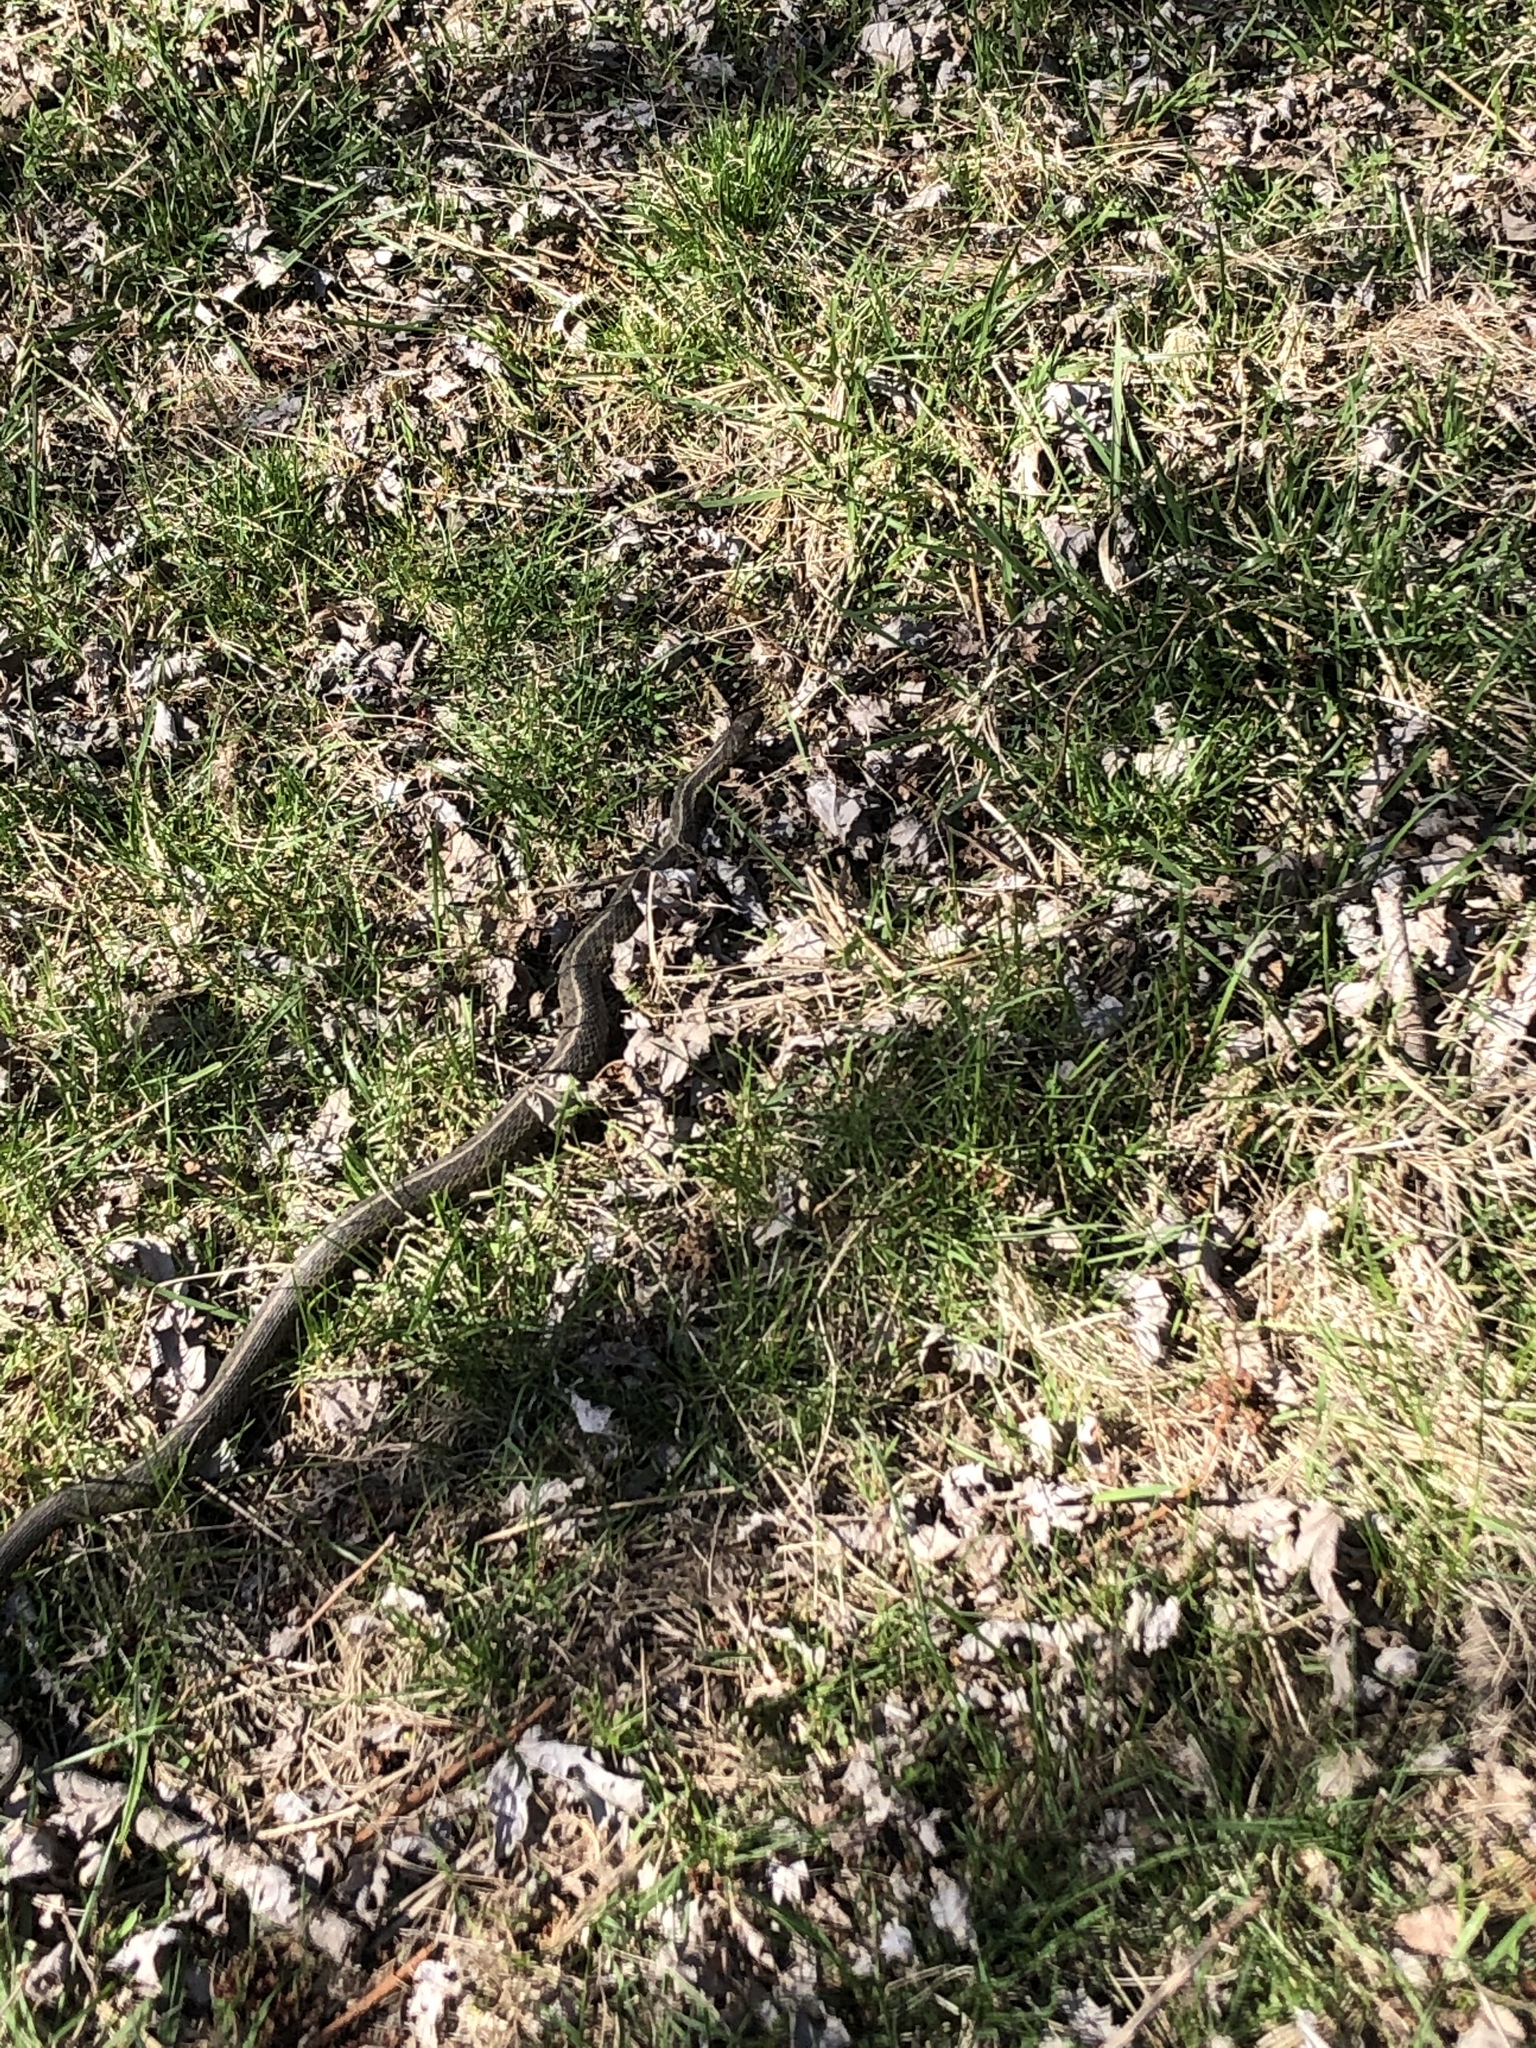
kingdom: Animalia
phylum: Chordata
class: Squamata
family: Colubridae
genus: Thamnophis
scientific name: Thamnophis sirtalis
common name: Common garter snake
